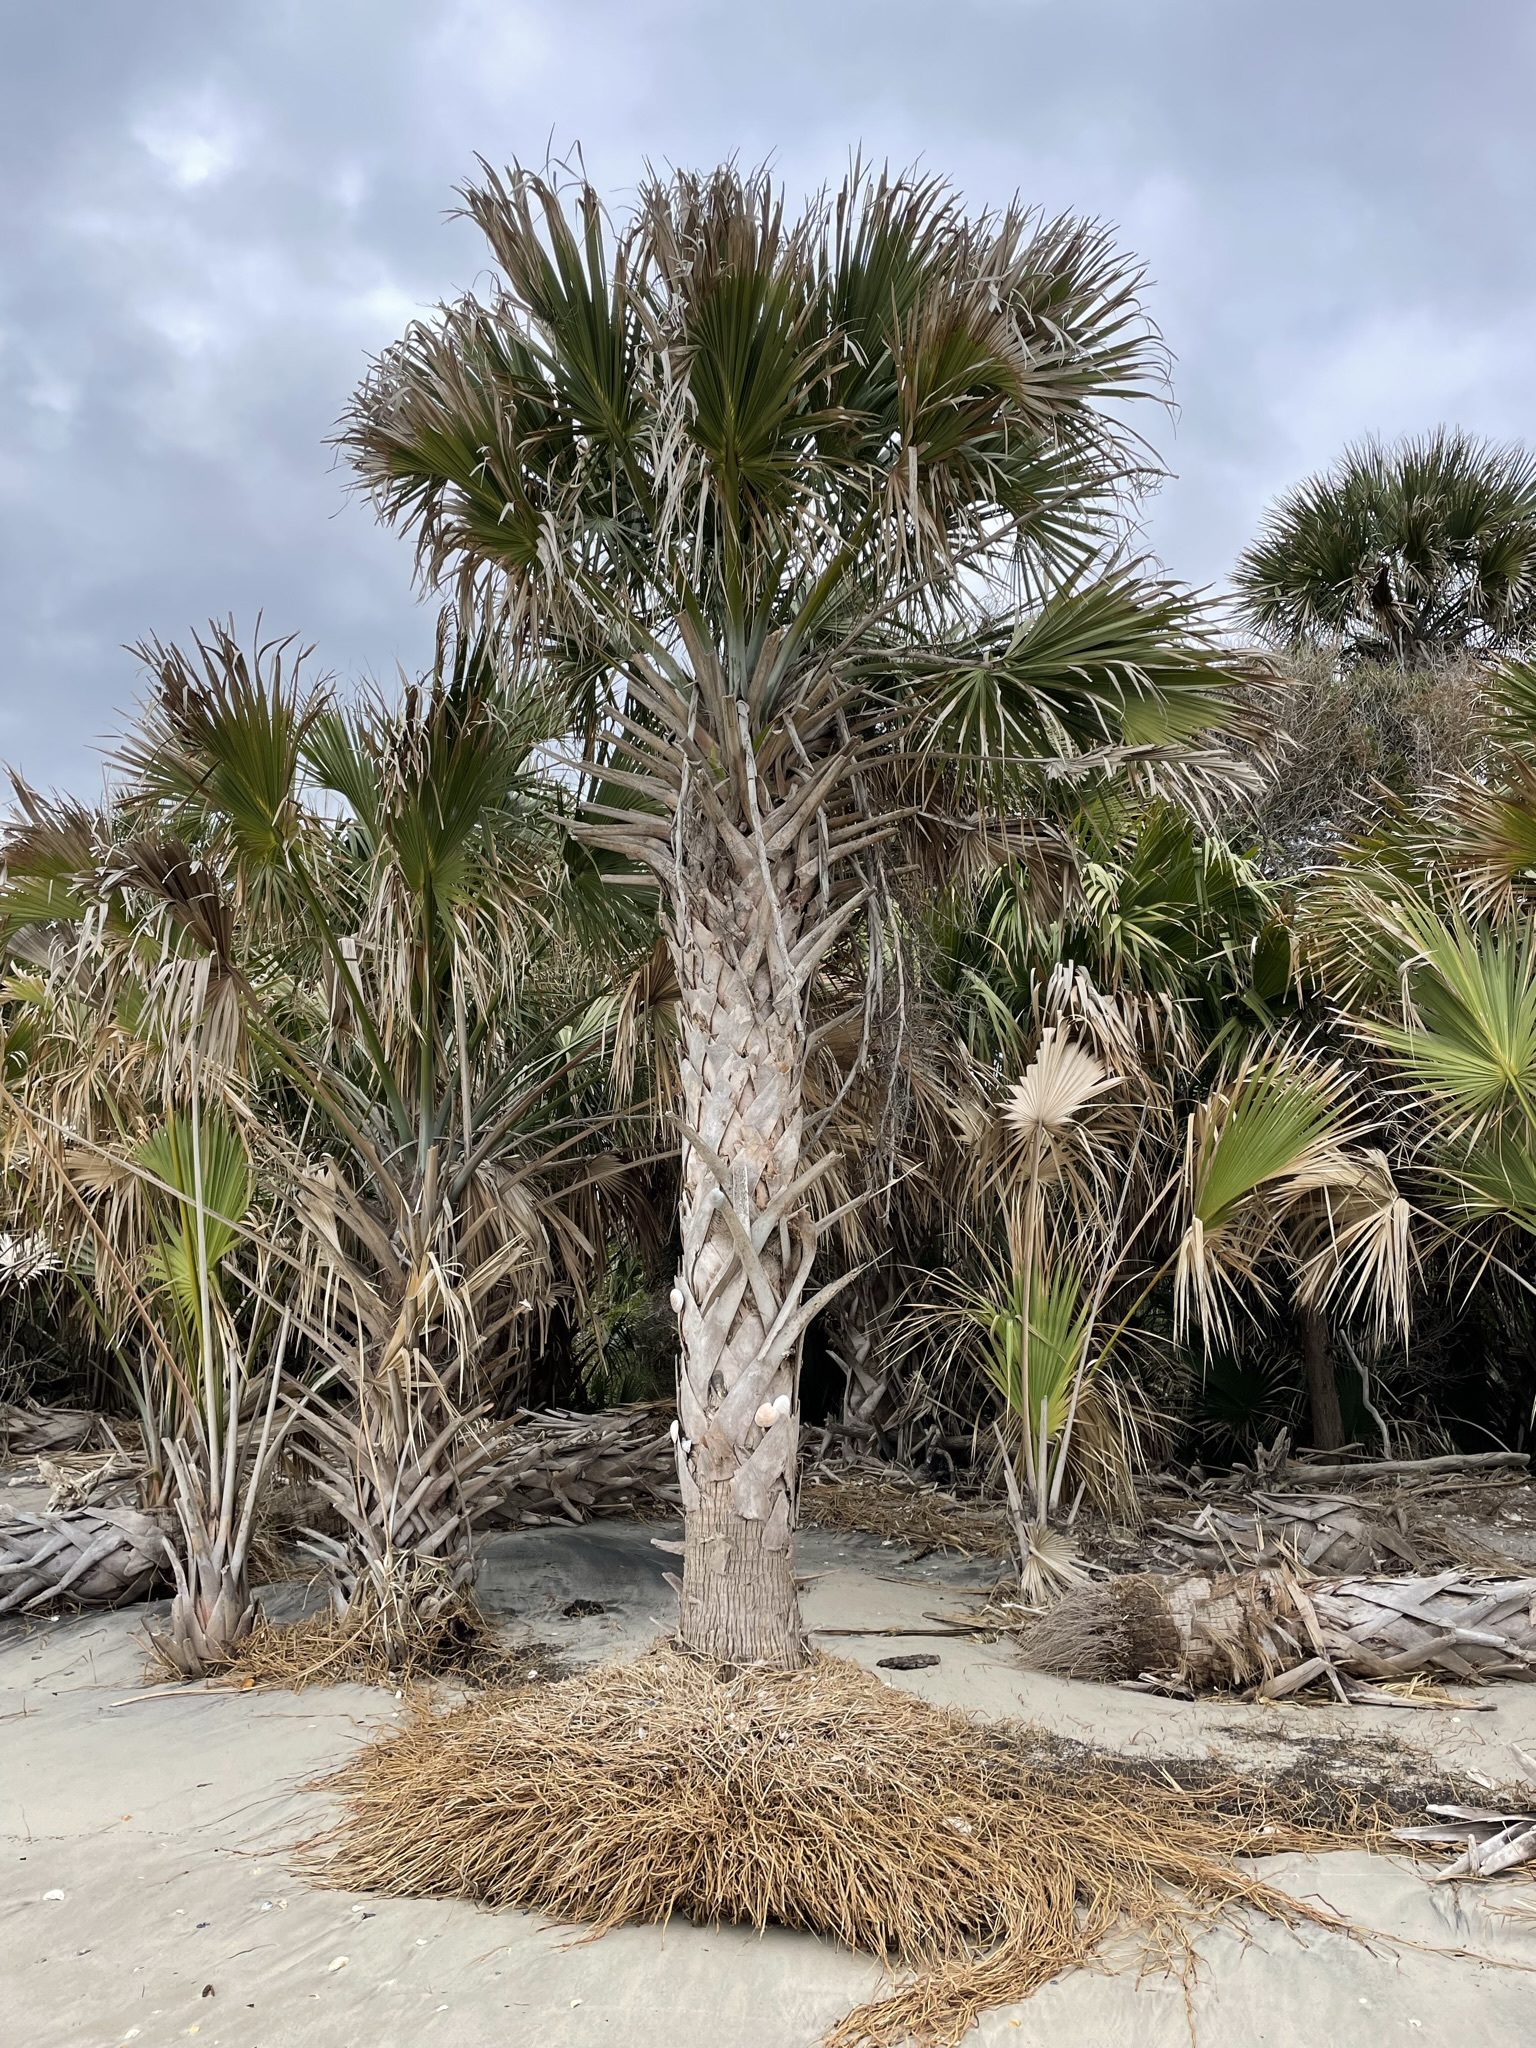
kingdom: Plantae
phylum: Tracheophyta
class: Liliopsida
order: Arecales
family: Arecaceae
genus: Sabal
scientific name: Sabal palmetto
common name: Blue palmetto
